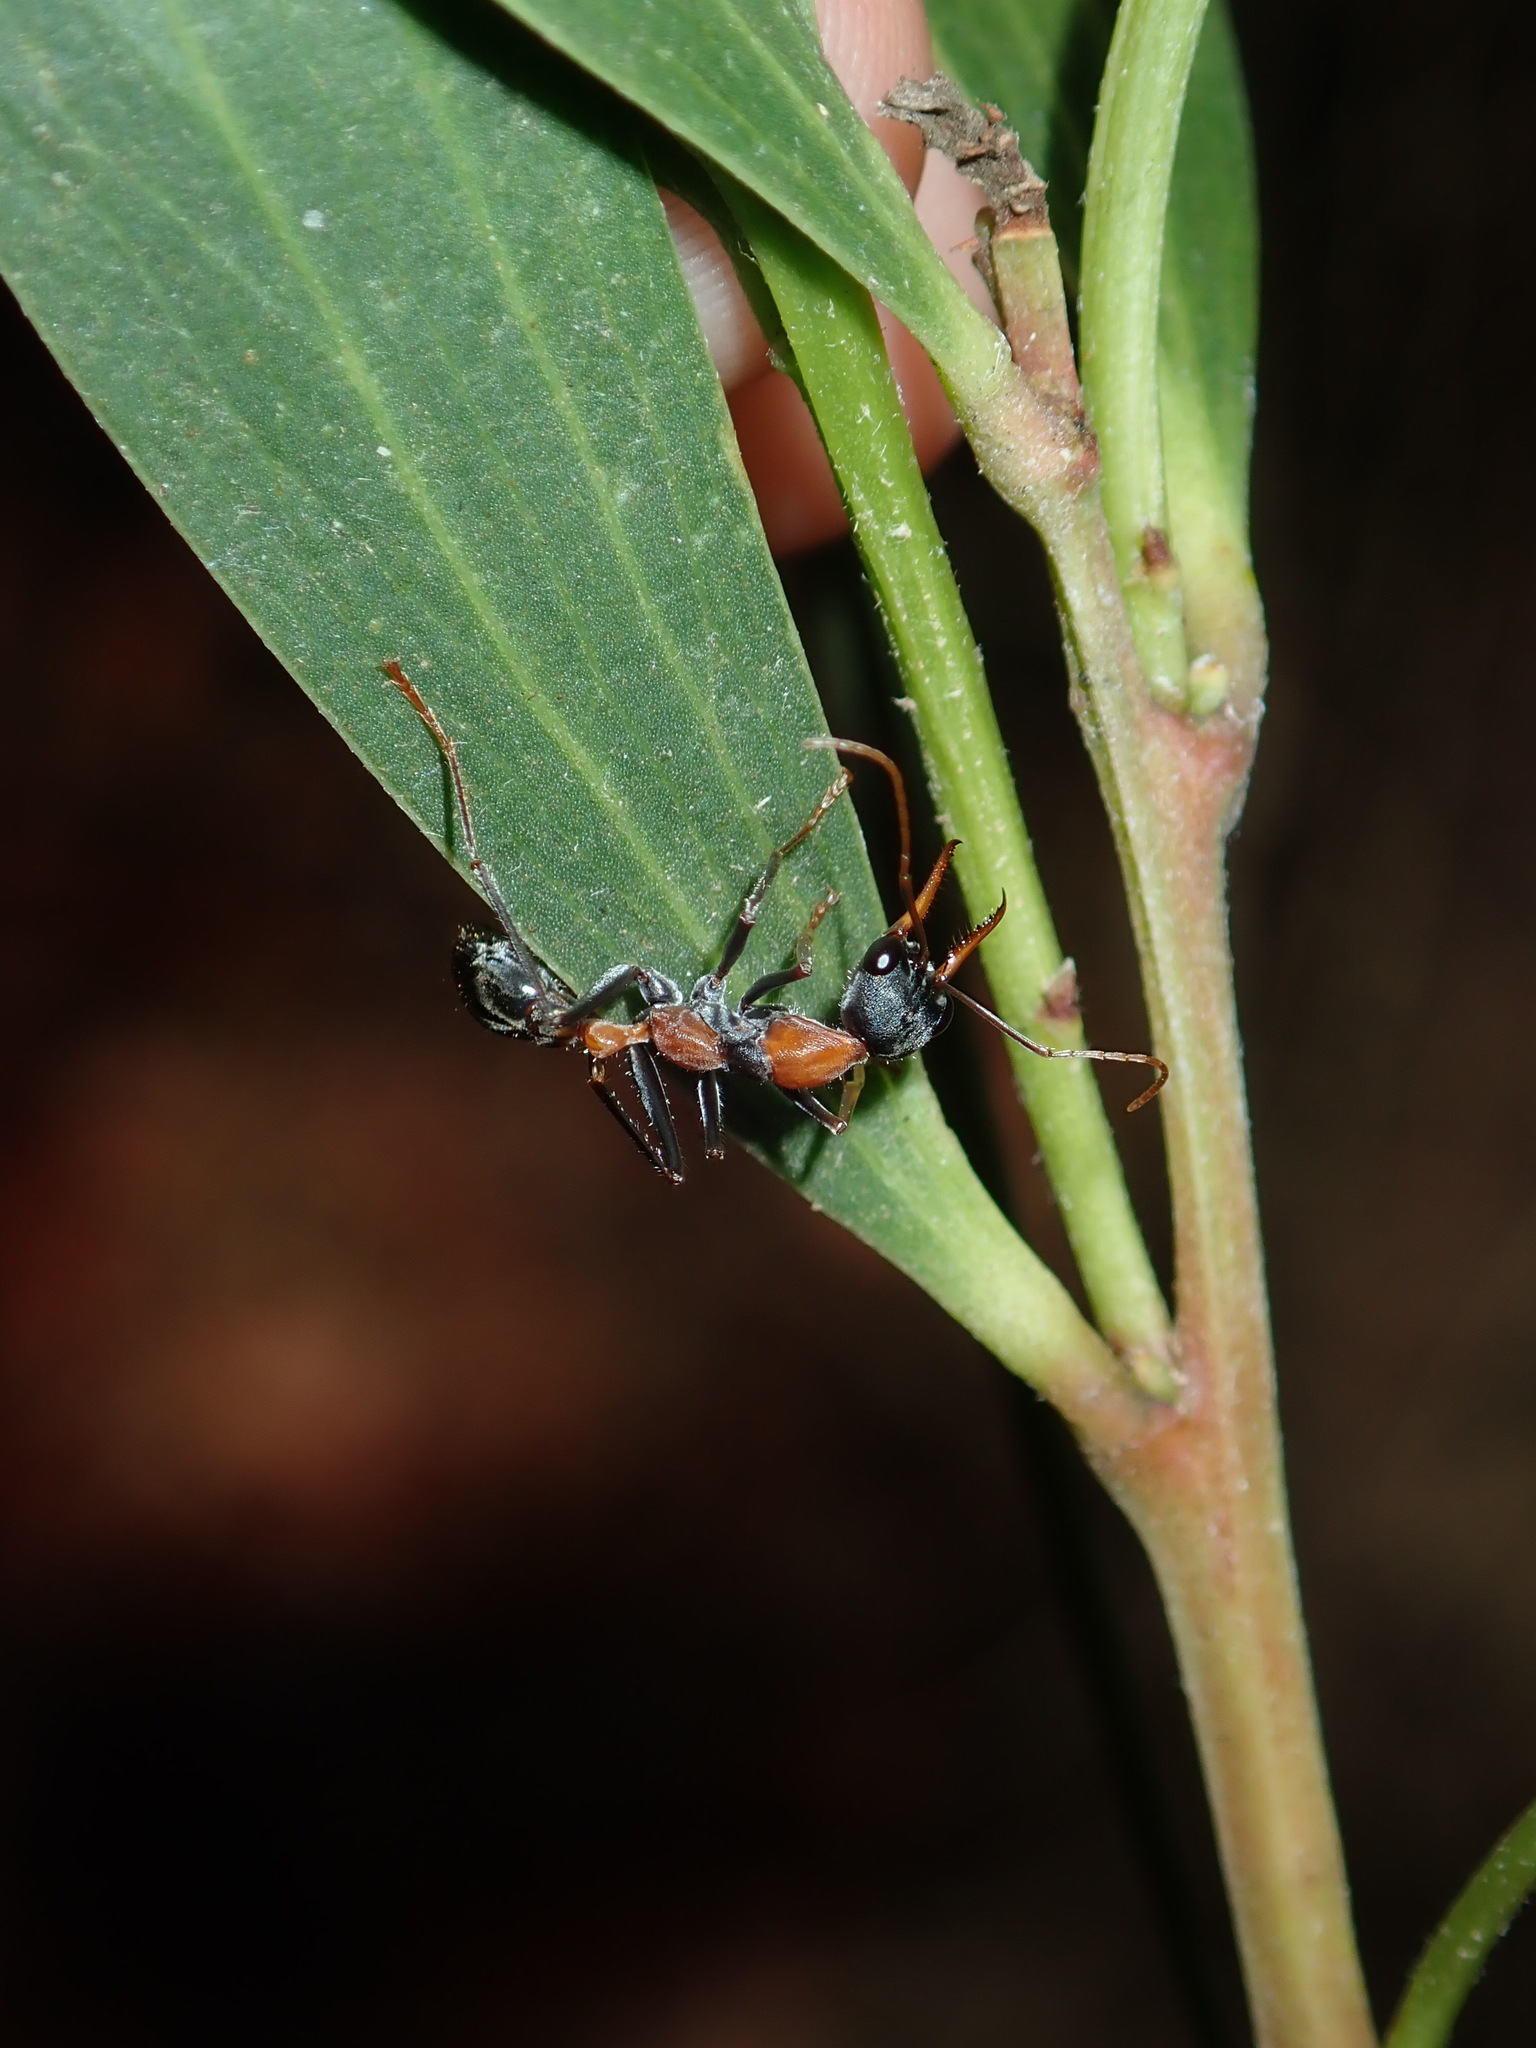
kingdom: Animalia
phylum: Arthropoda
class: Insecta
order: Hymenoptera
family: Formicidae
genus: Myrmecia
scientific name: Myrmecia nigrocincta
